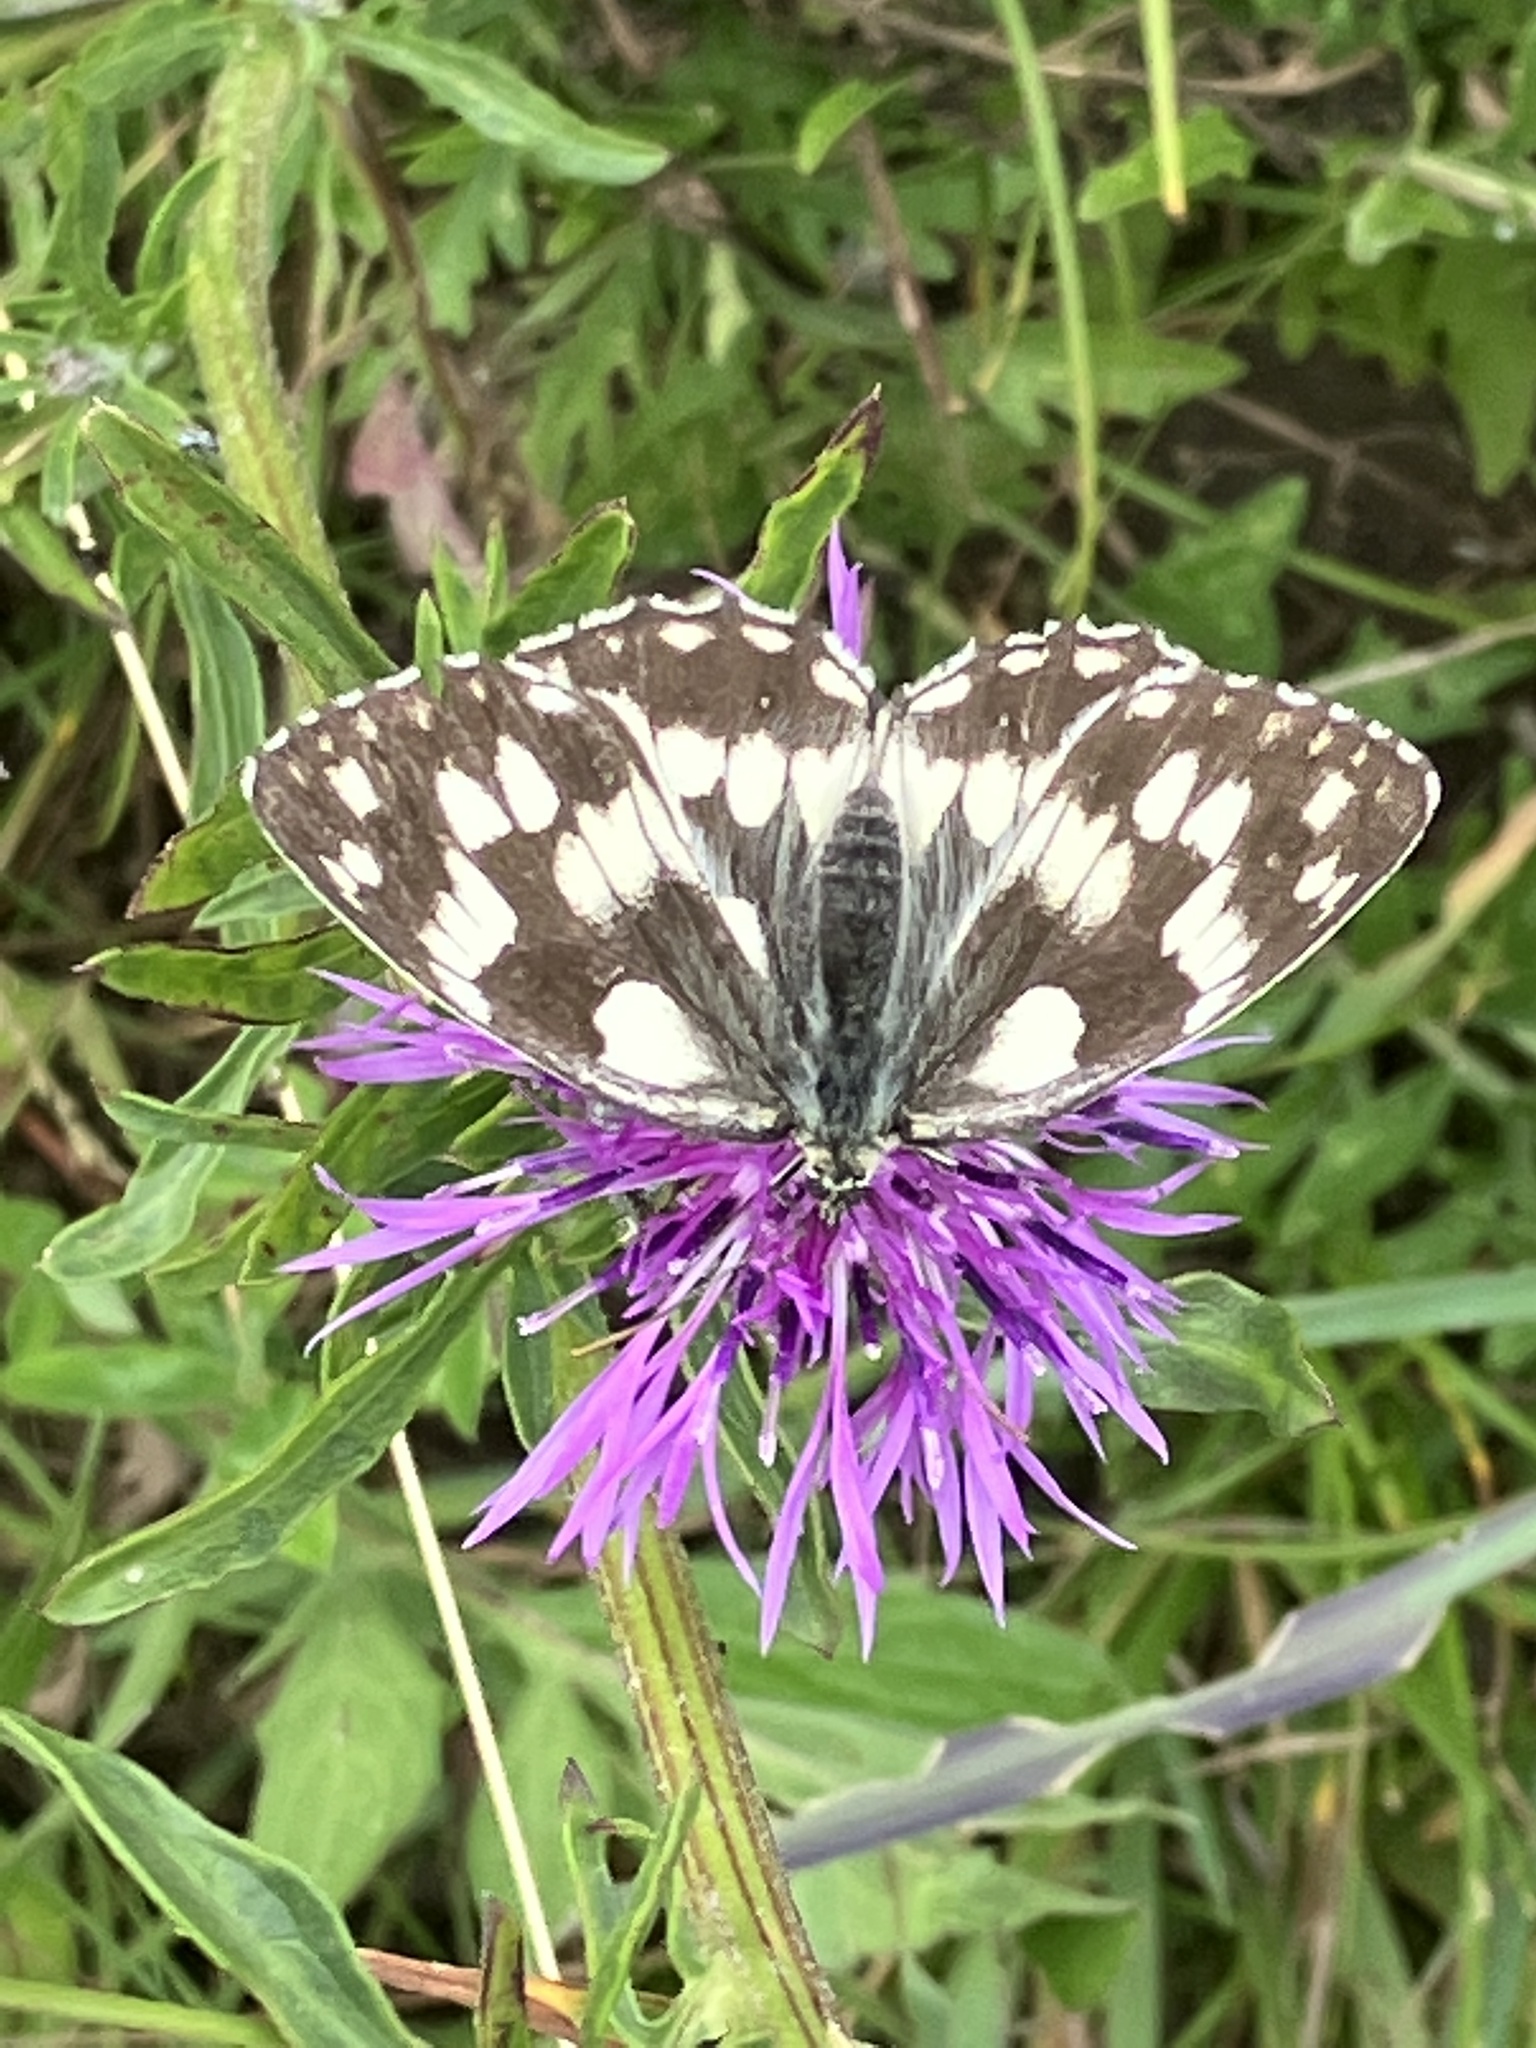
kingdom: Animalia
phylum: Arthropoda
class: Insecta
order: Lepidoptera
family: Nymphalidae
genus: Melanargia
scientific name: Melanargia galathea
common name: Marbled white
